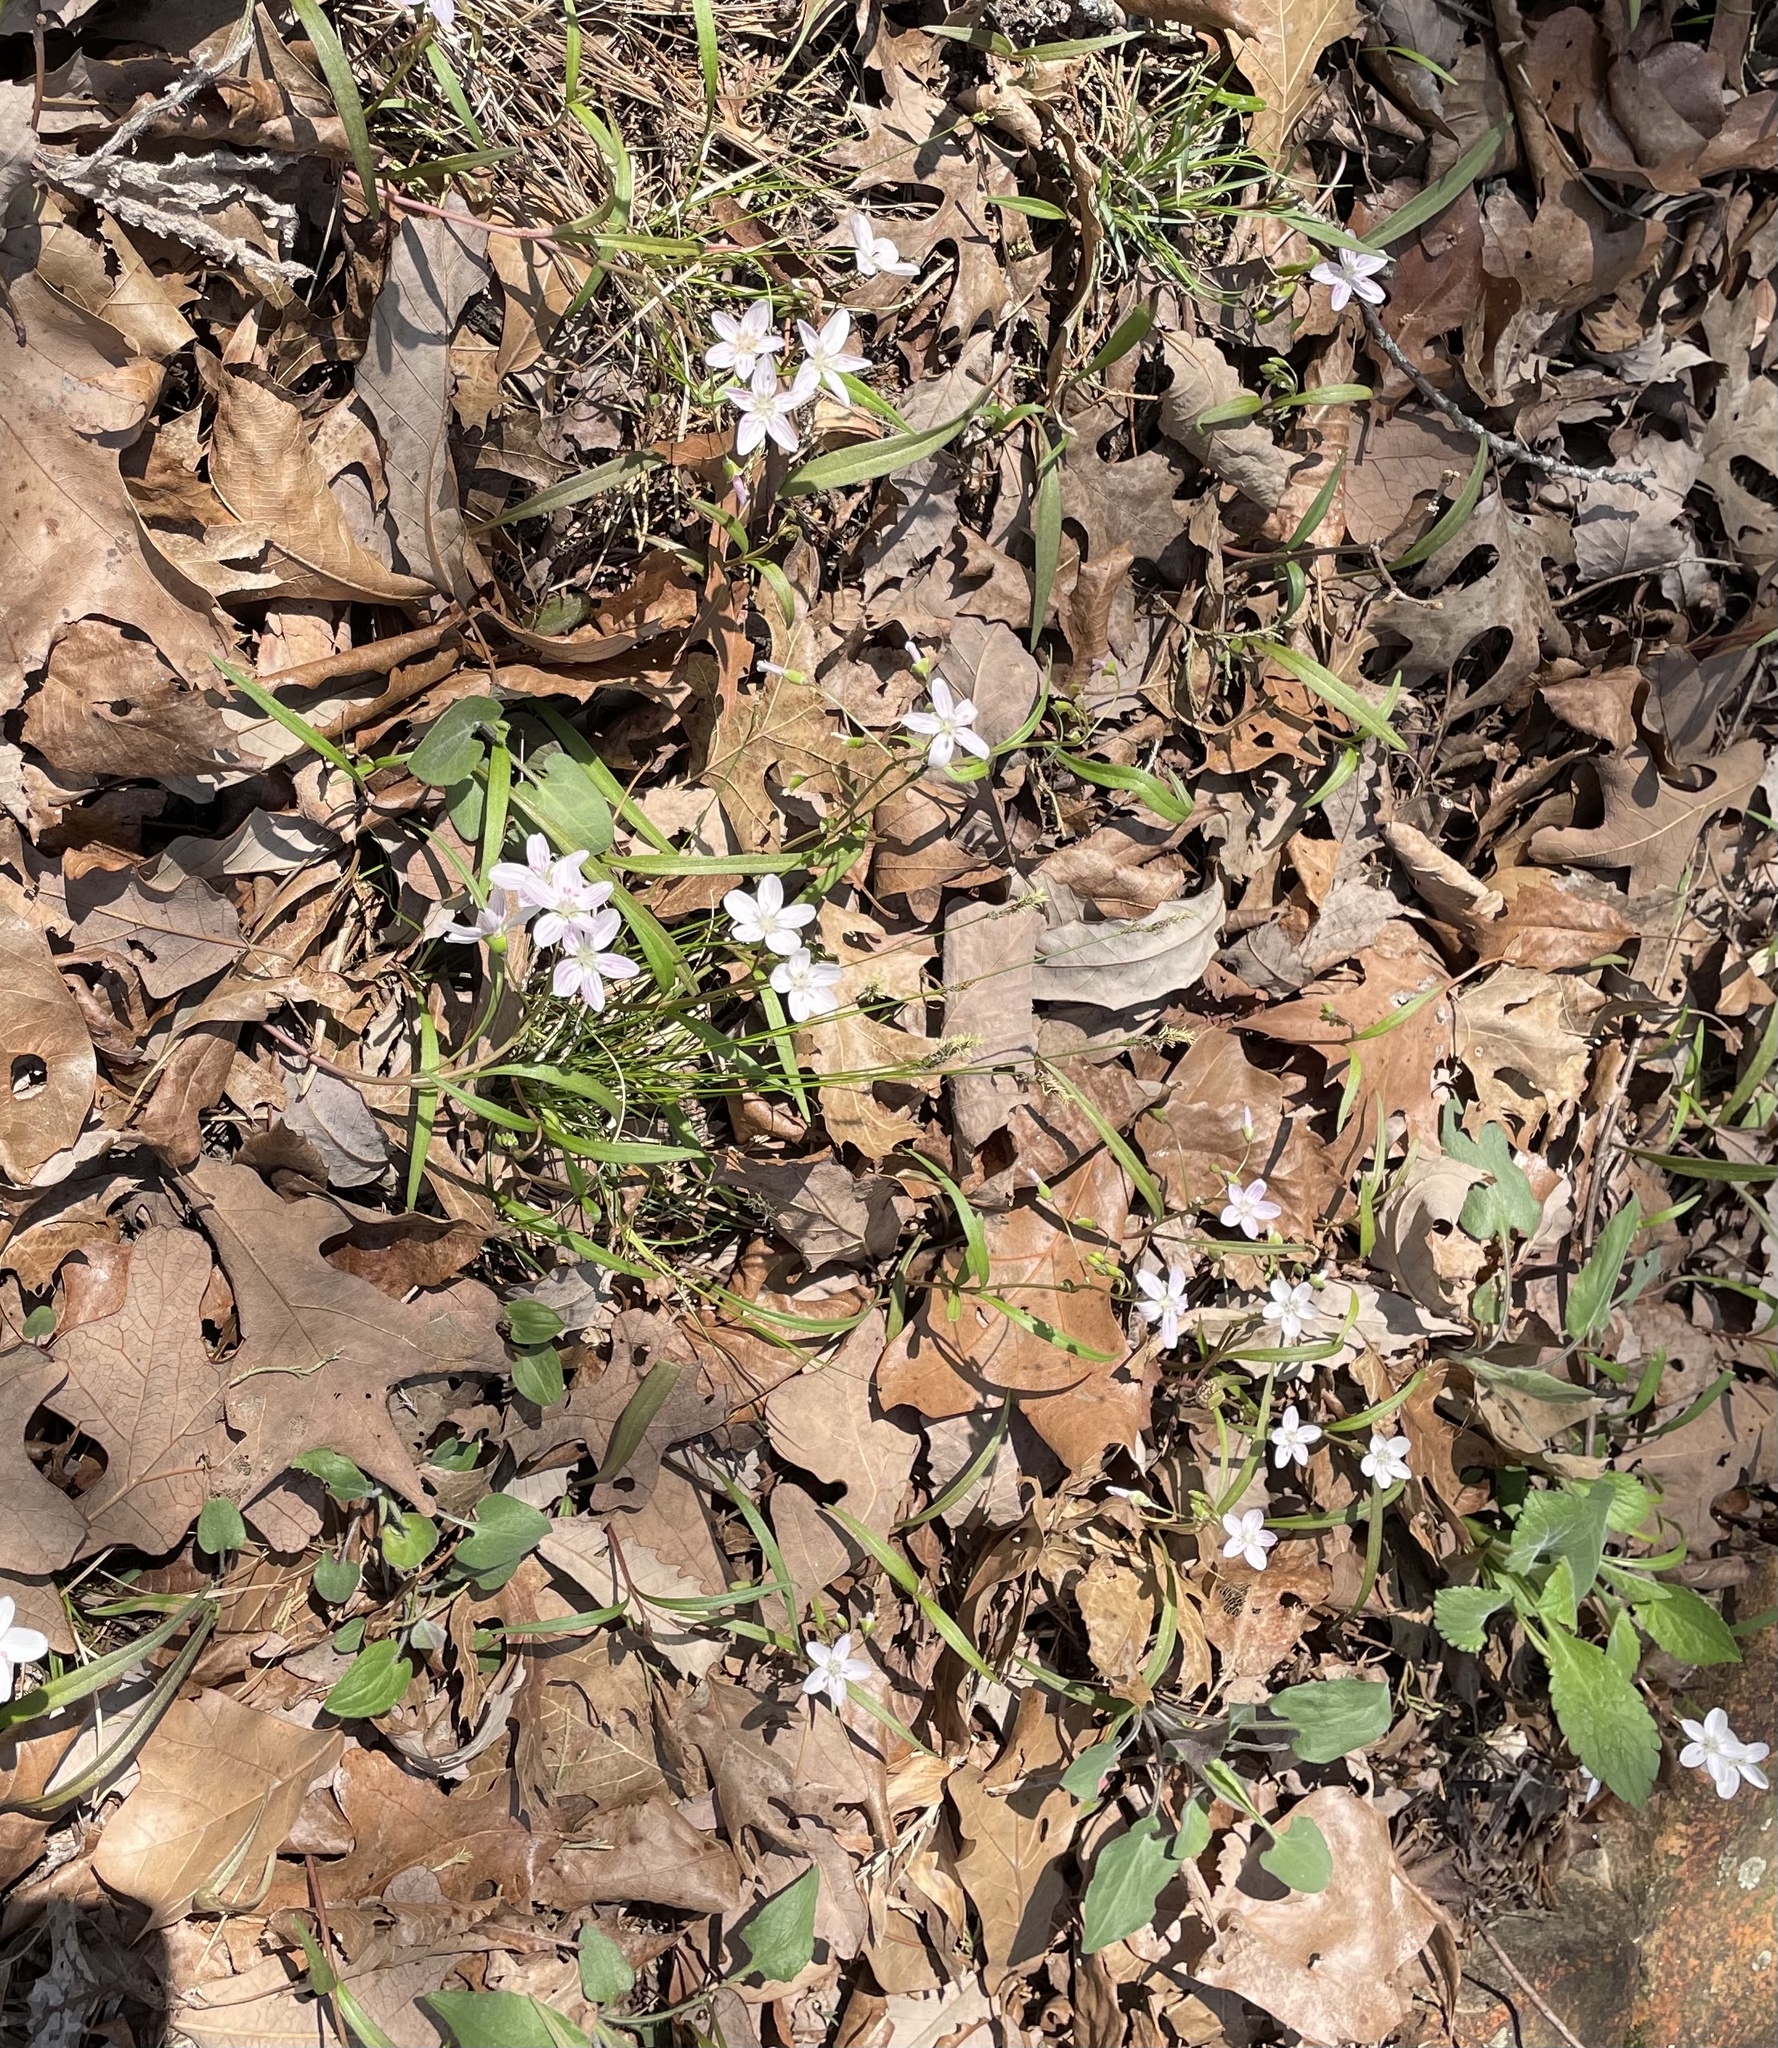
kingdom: Plantae
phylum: Tracheophyta
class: Magnoliopsida
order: Caryophyllales
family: Montiaceae
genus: Claytonia
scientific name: Claytonia virginica
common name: Virginia springbeauty
